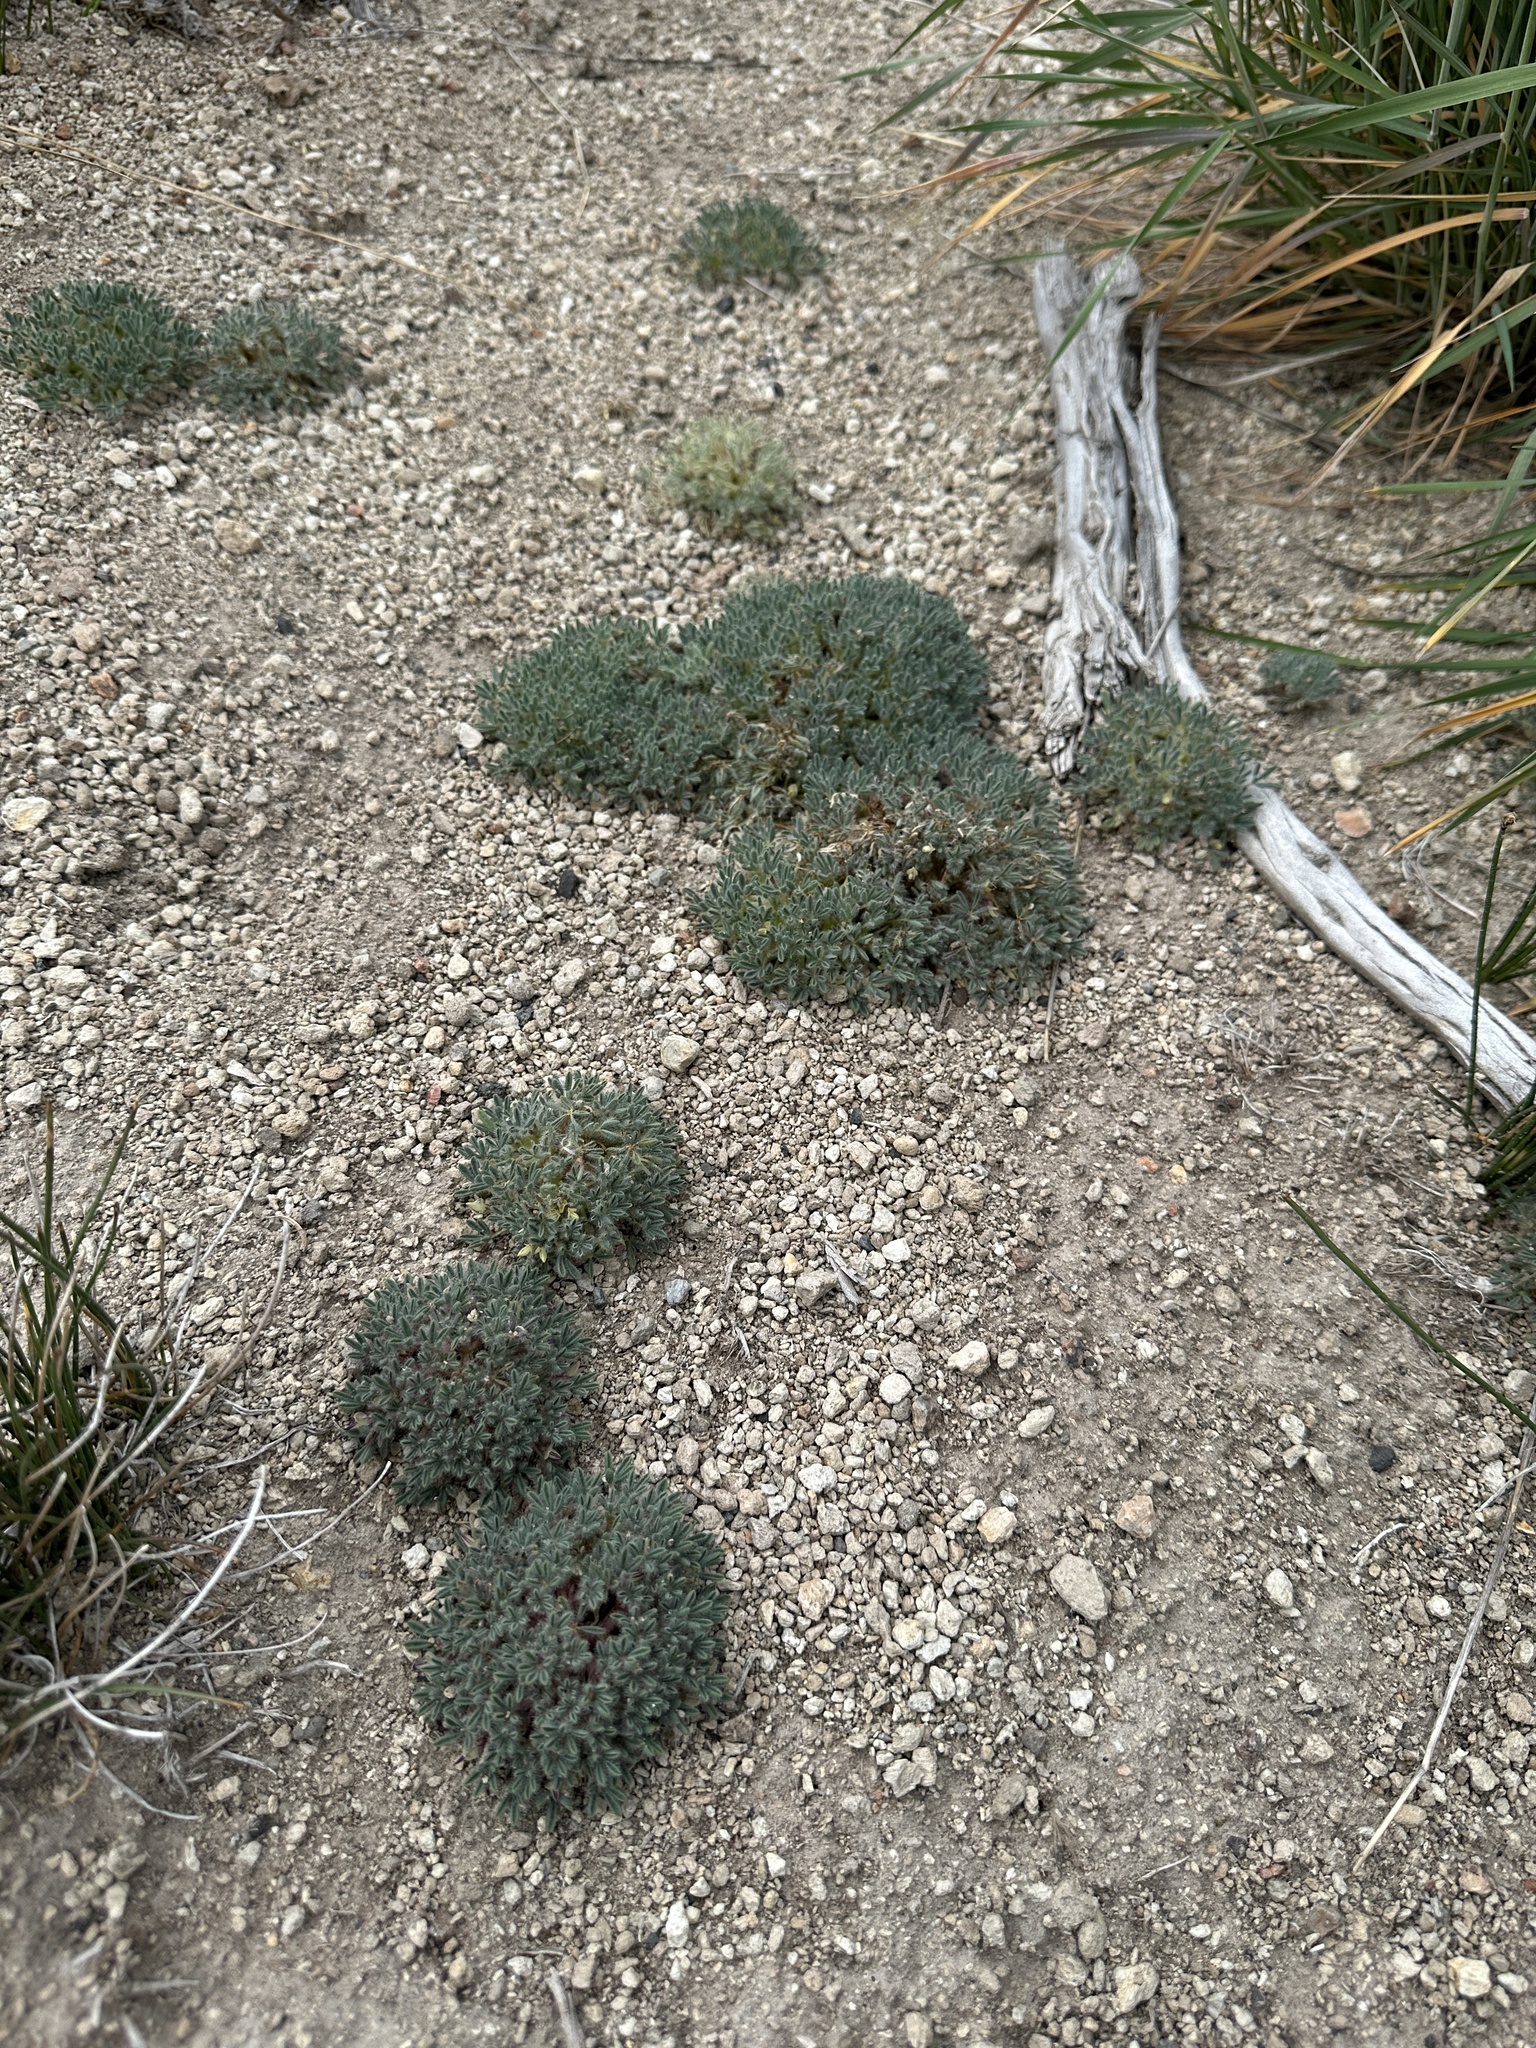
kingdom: Plantae
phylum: Tracheophyta
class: Magnoliopsida
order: Fabales
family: Fabaceae
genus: Lupinus
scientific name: Lupinus uncialis
